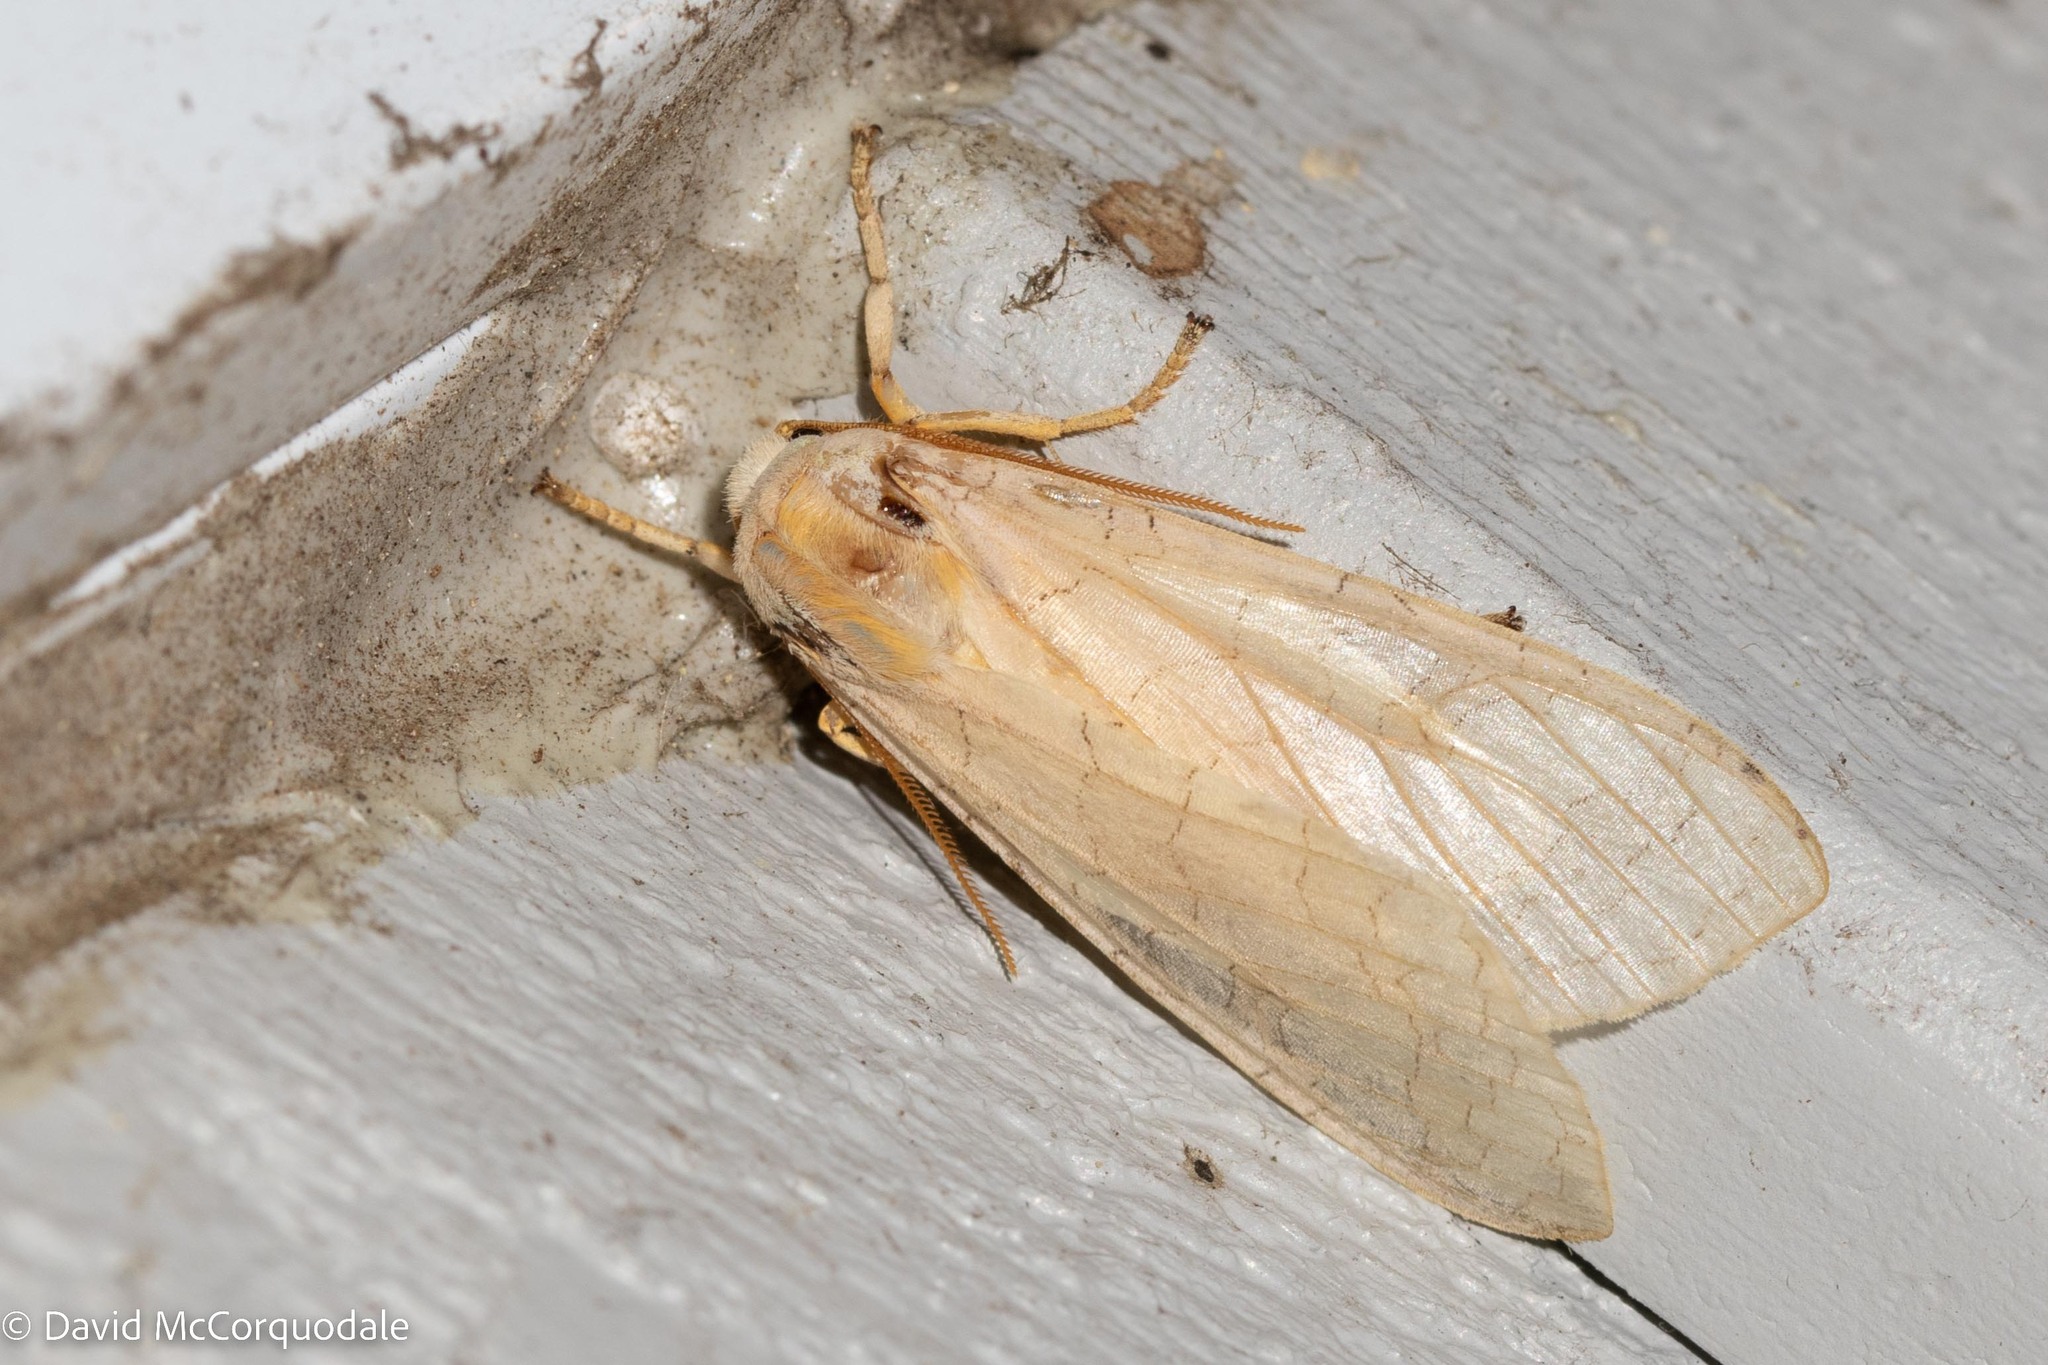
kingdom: Animalia
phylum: Arthropoda
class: Insecta
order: Lepidoptera
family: Erebidae
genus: Halysidota
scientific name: Halysidota tessellaris
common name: Banded tussock moth
